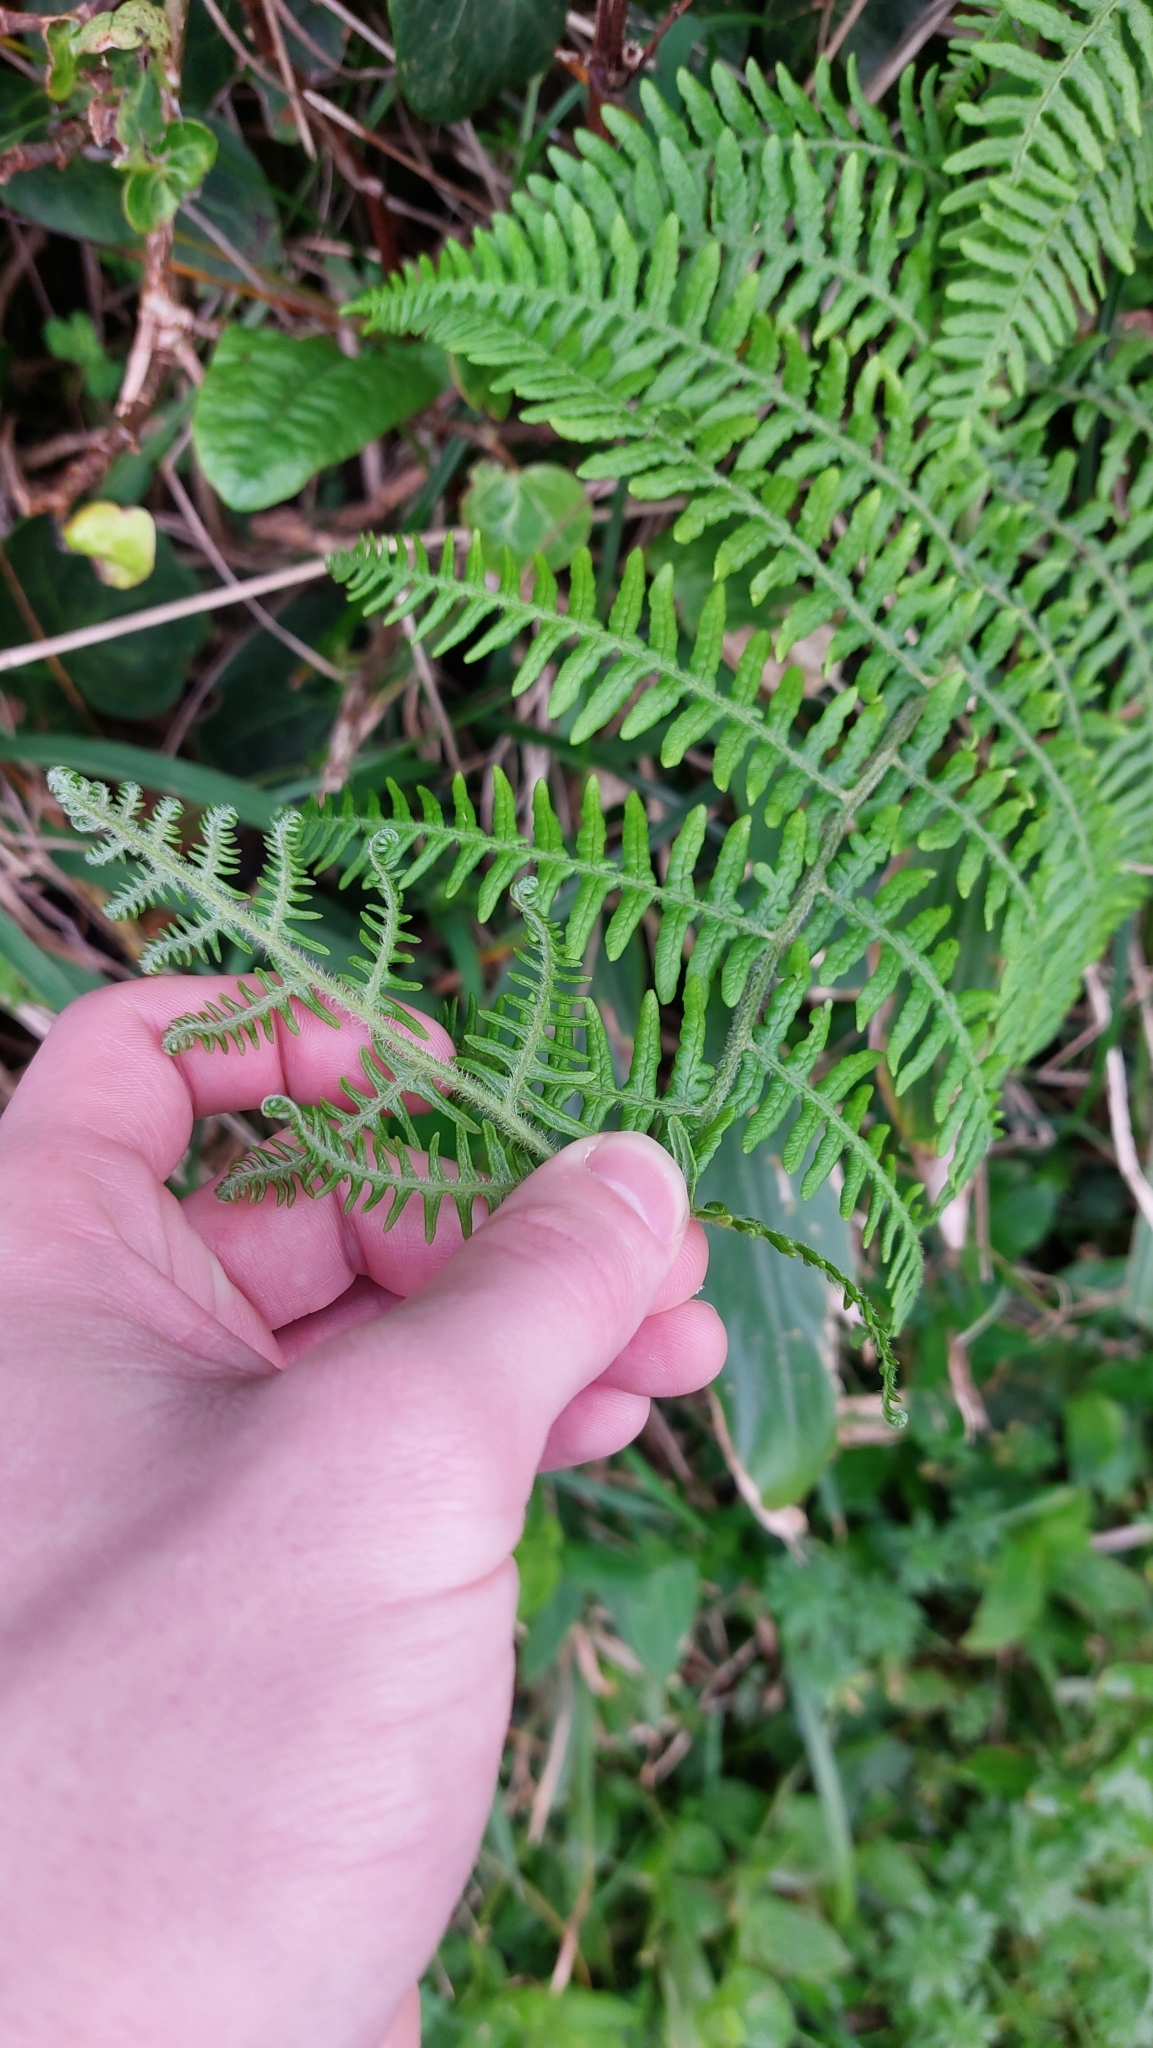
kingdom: Plantae
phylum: Tracheophyta
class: Polypodiopsida
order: Polypodiales
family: Dennstaedtiaceae
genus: Pteridium
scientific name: Pteridium aquilinum
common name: Bracken
